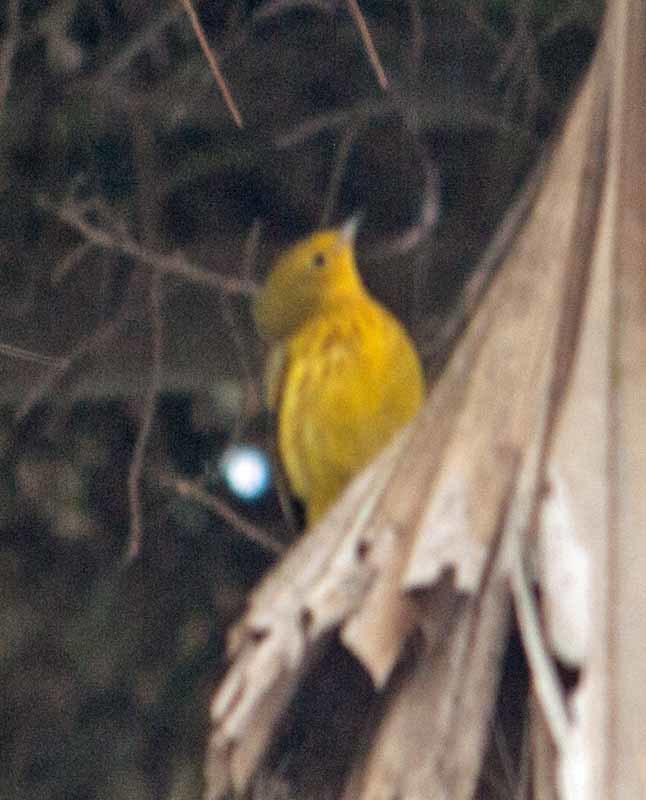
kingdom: Animalia
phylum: Chordata
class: Aves
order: Passeriformes
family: Parulidae
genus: Setophaga
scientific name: Setophaga petechia
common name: Yellow warbler
